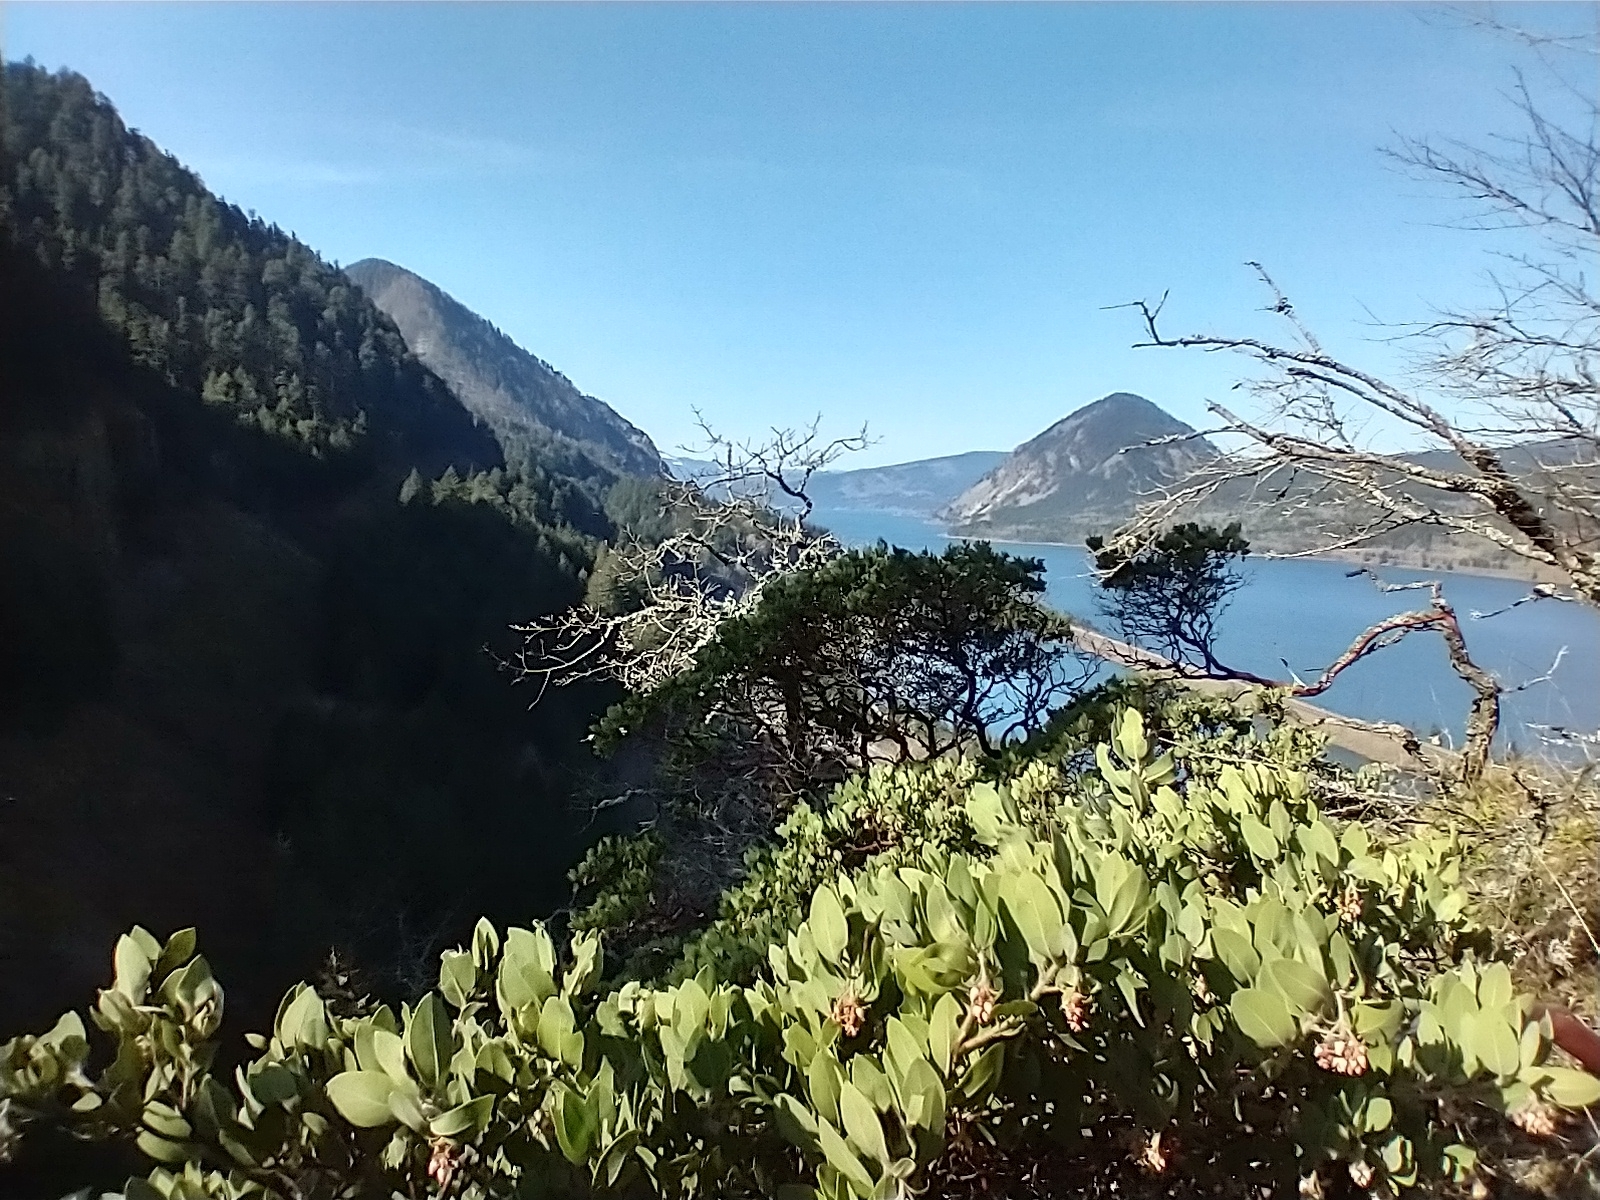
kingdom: Plantae
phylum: Tracheophyta
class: Magnoliopsida
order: Ericales
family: Ericaceae
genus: Arctostaphylos
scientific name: Arctostaphylos columbiana
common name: Bristly bearberry
